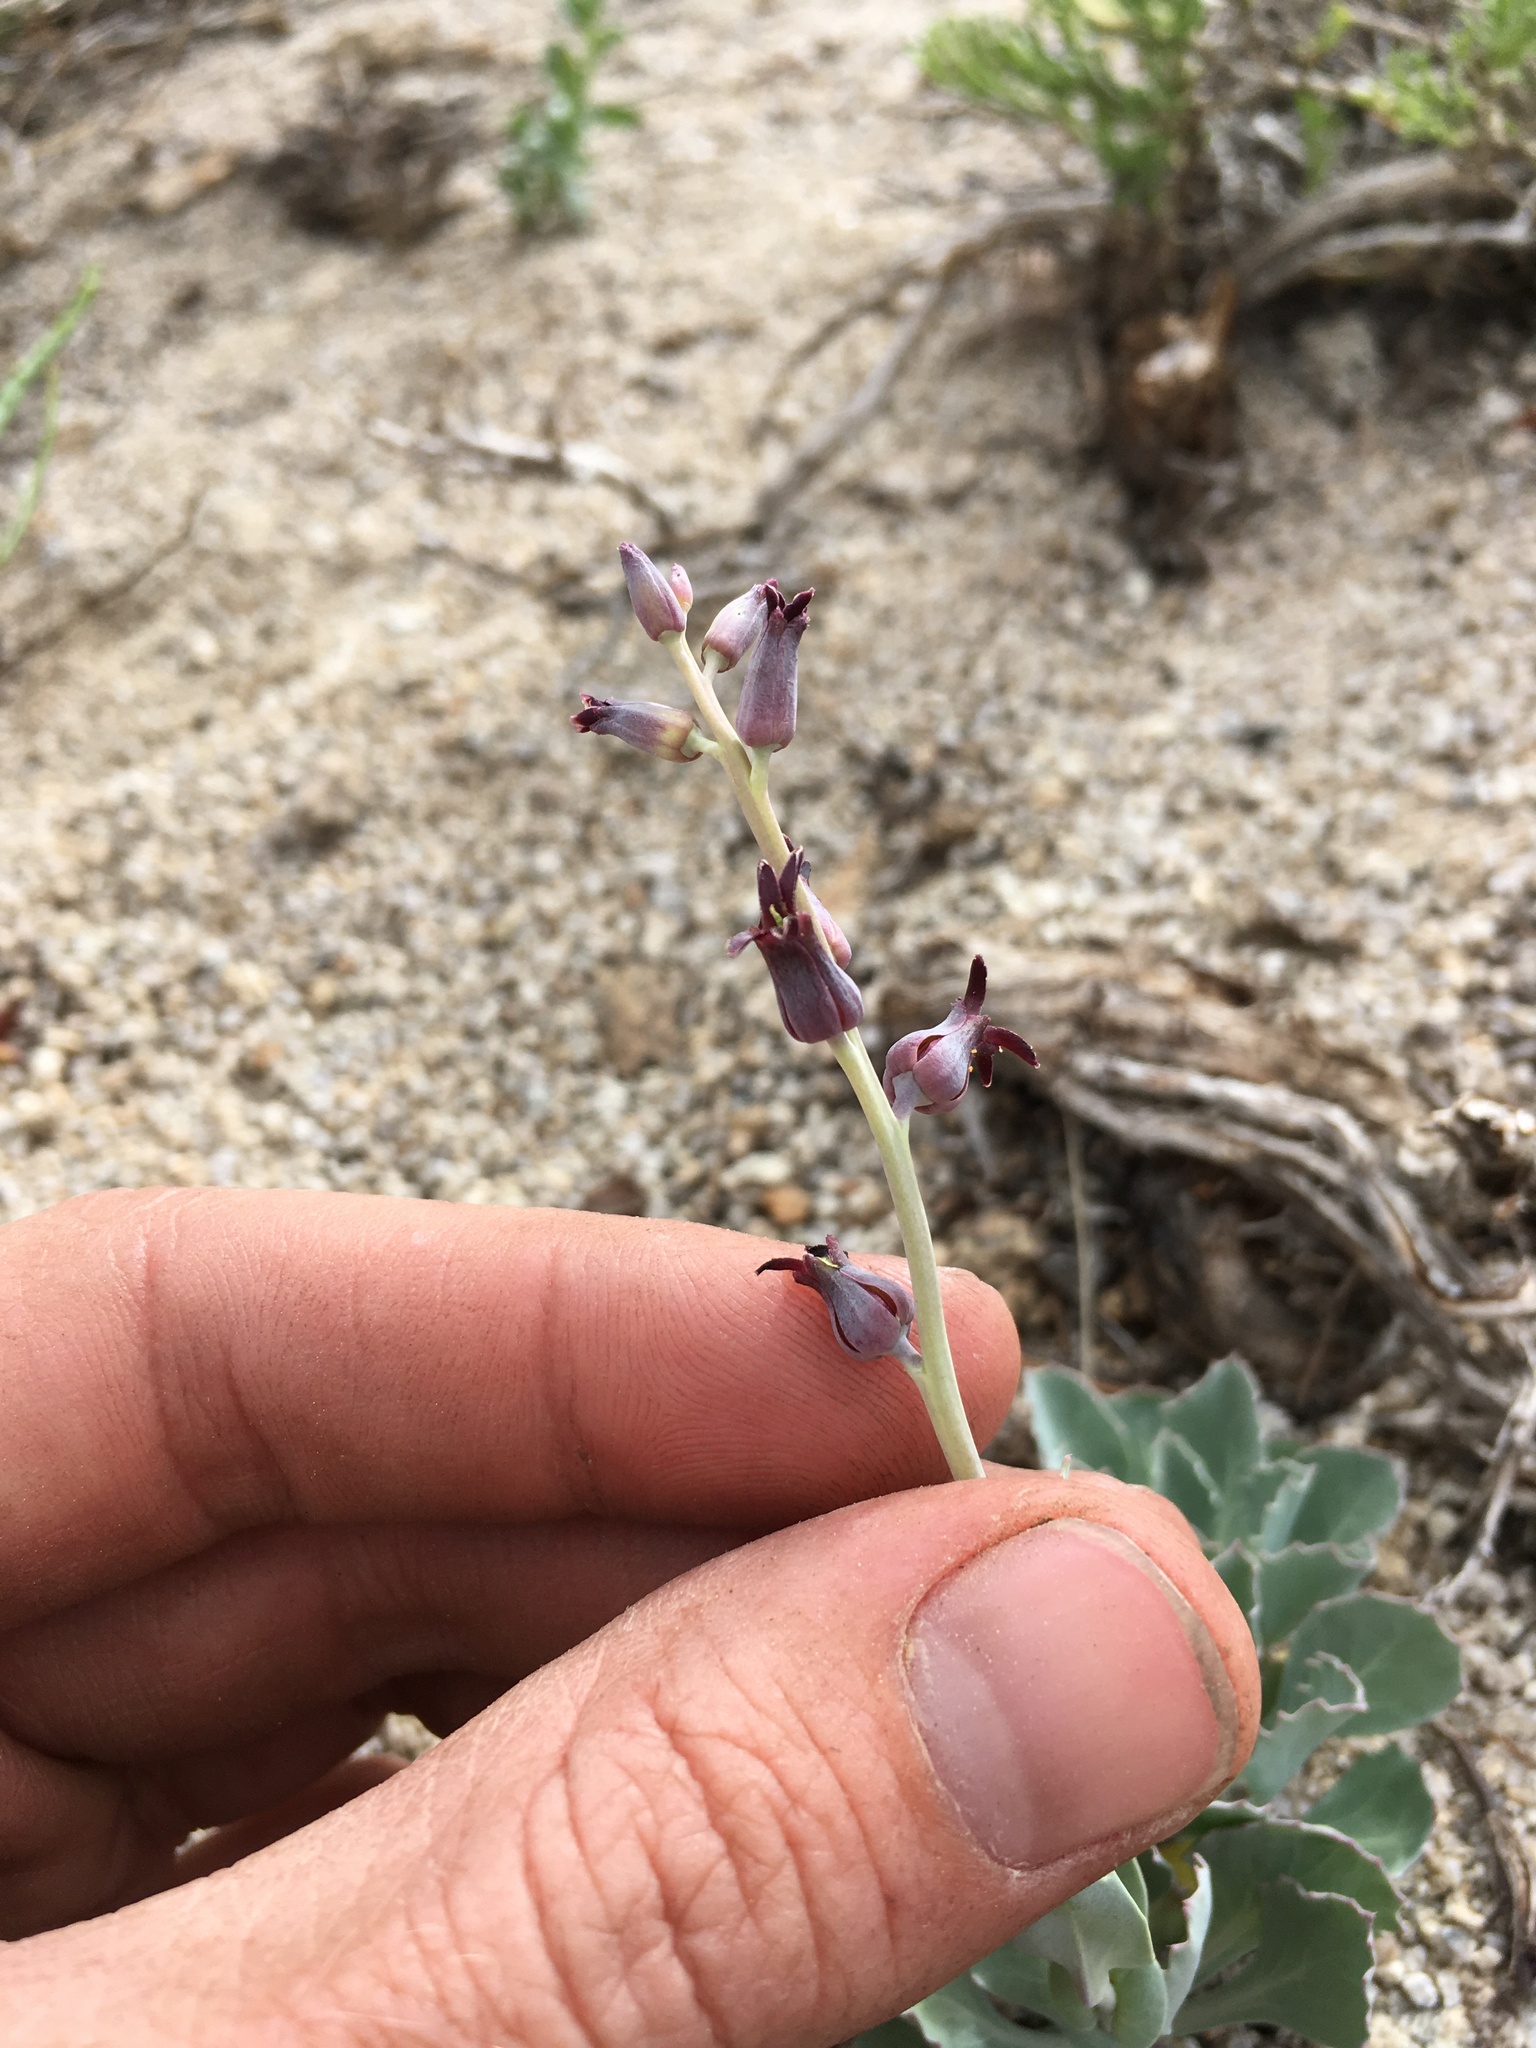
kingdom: Plantae
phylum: Tracheophyta
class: Magnoliopsida
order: Brassicales
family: Brassicaceae
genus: Streptanthus
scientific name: Streptanthus cordatus
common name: Heart-leaf jewel-flower
